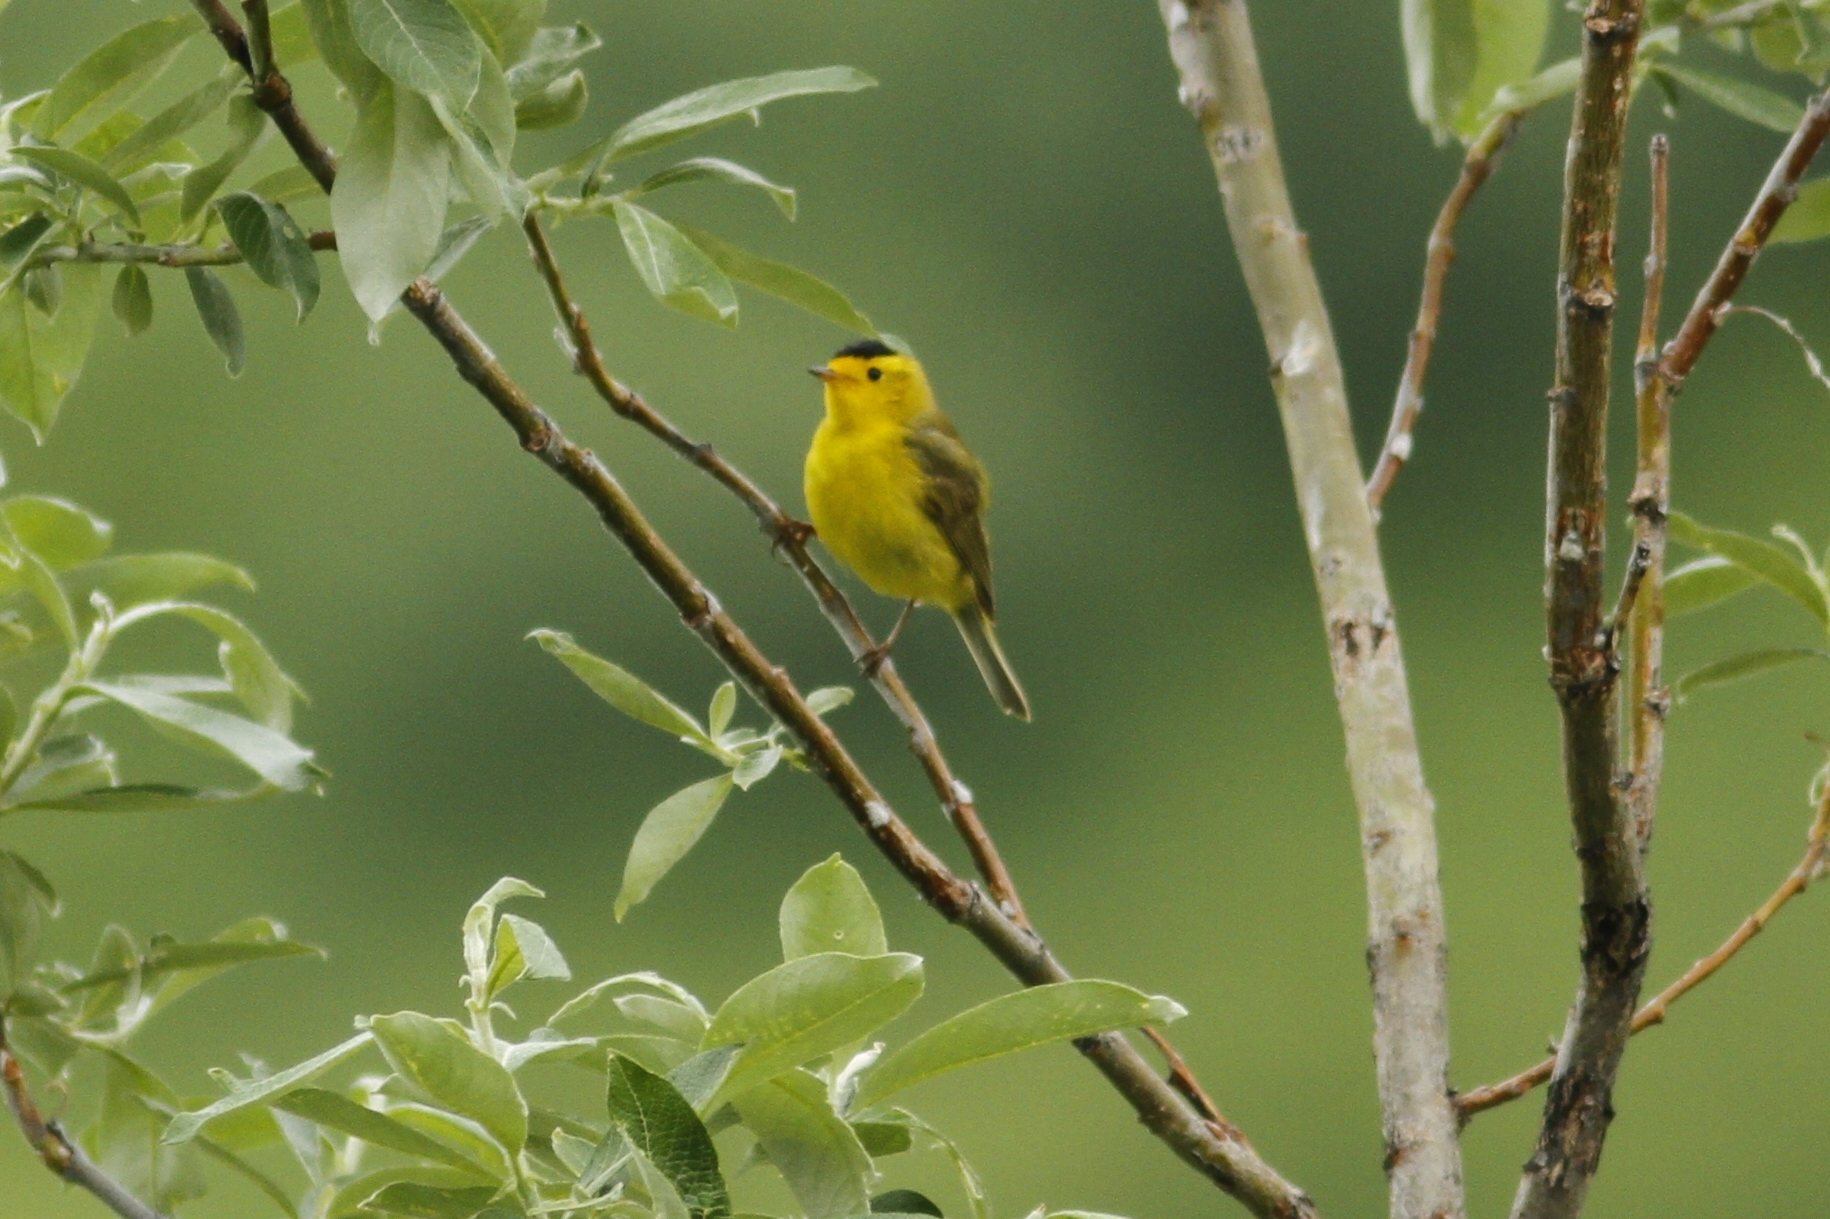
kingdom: Animalia
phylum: Chordata
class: Aves
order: Passeriformes
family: Parulidae
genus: Cardellina
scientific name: Cardellina pusilla
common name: Wilson's warbler
